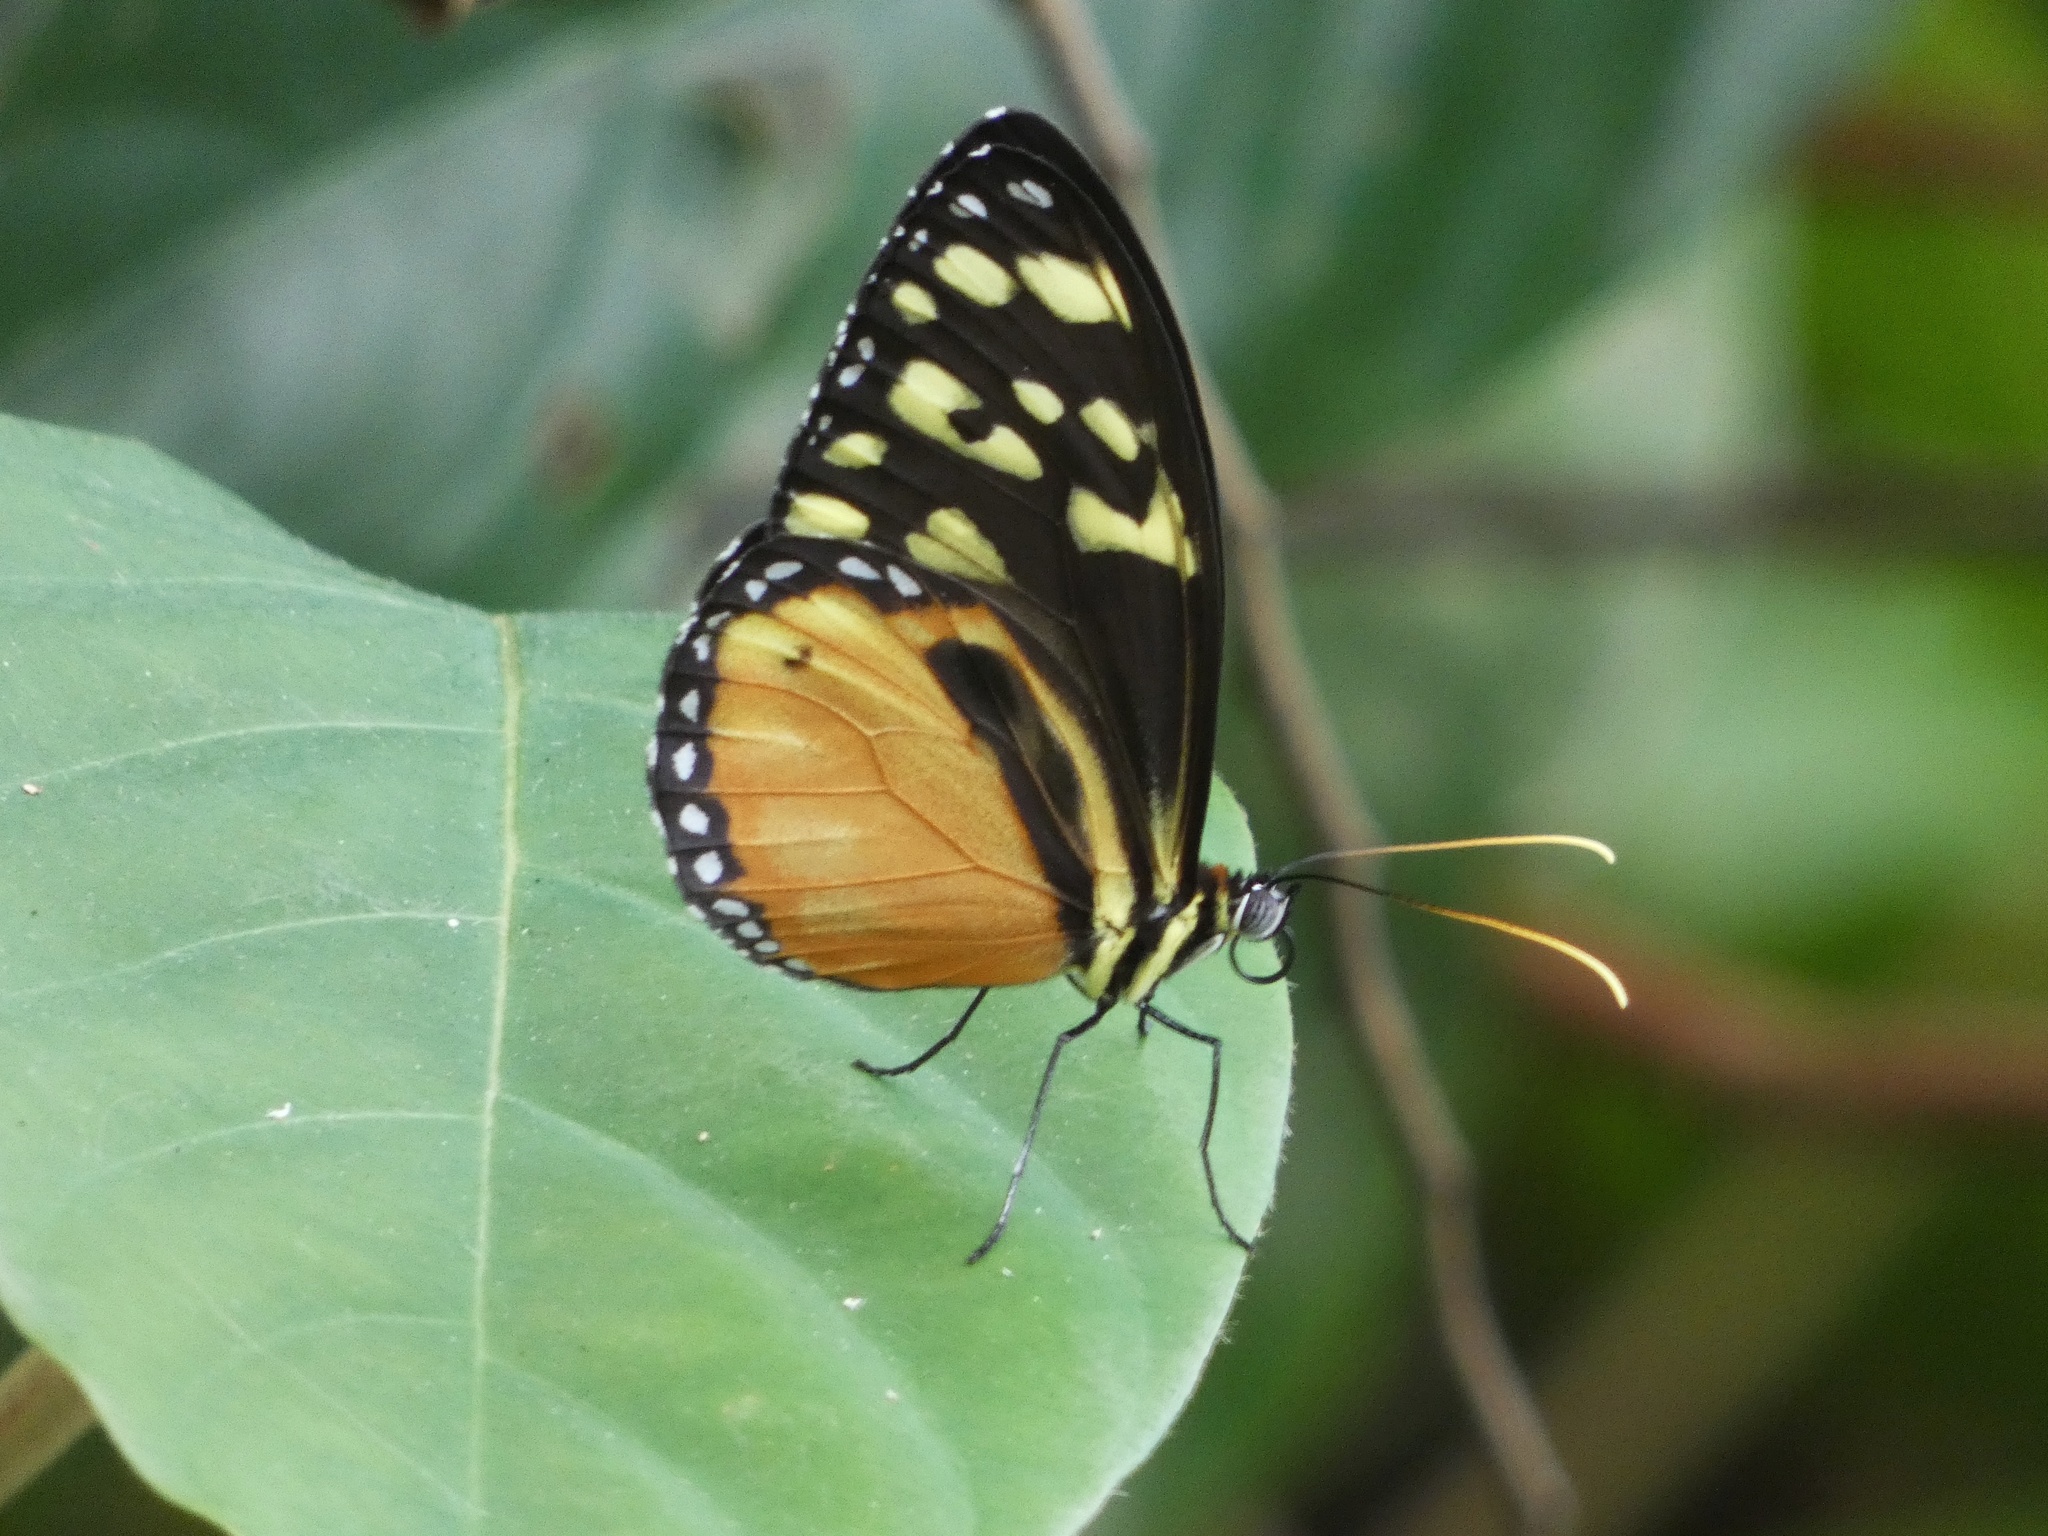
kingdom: Animalia
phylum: Arthropoda
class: Insecta
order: Lepidoptera
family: Nymphalidae
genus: Tithorea
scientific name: Tithorea harmonia
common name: Harmonia tigerwing
